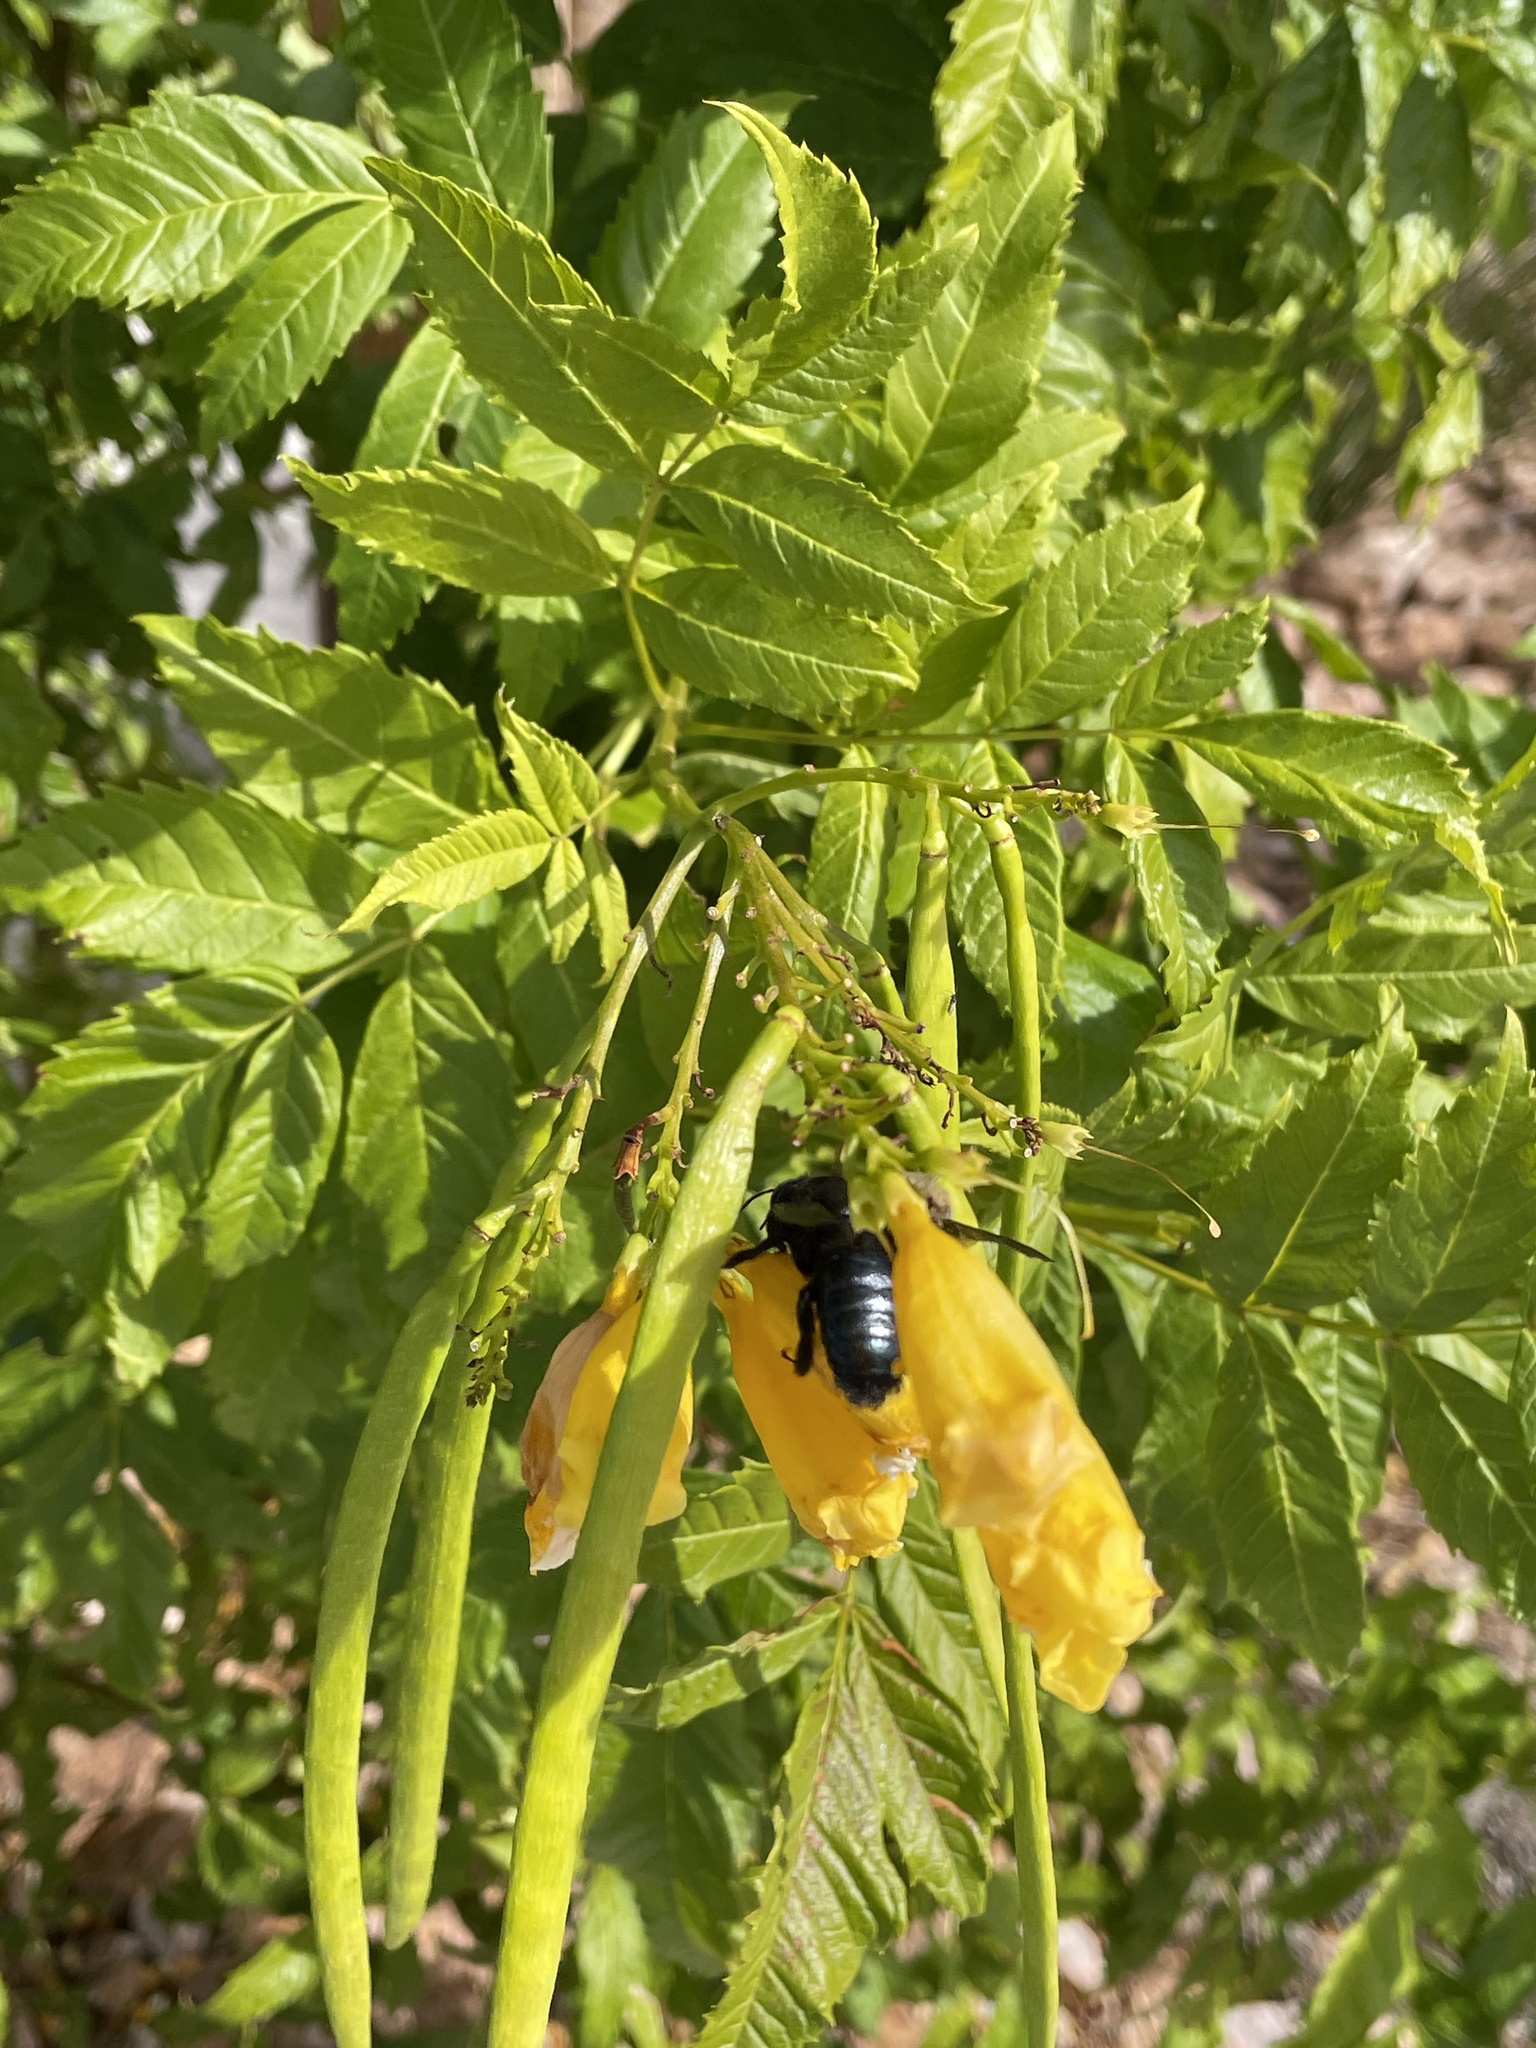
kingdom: Animalia
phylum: Arthropoda
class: Insecta
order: Hymenoptera
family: Apidae
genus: Xylocopa
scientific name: Xylocopa californica
